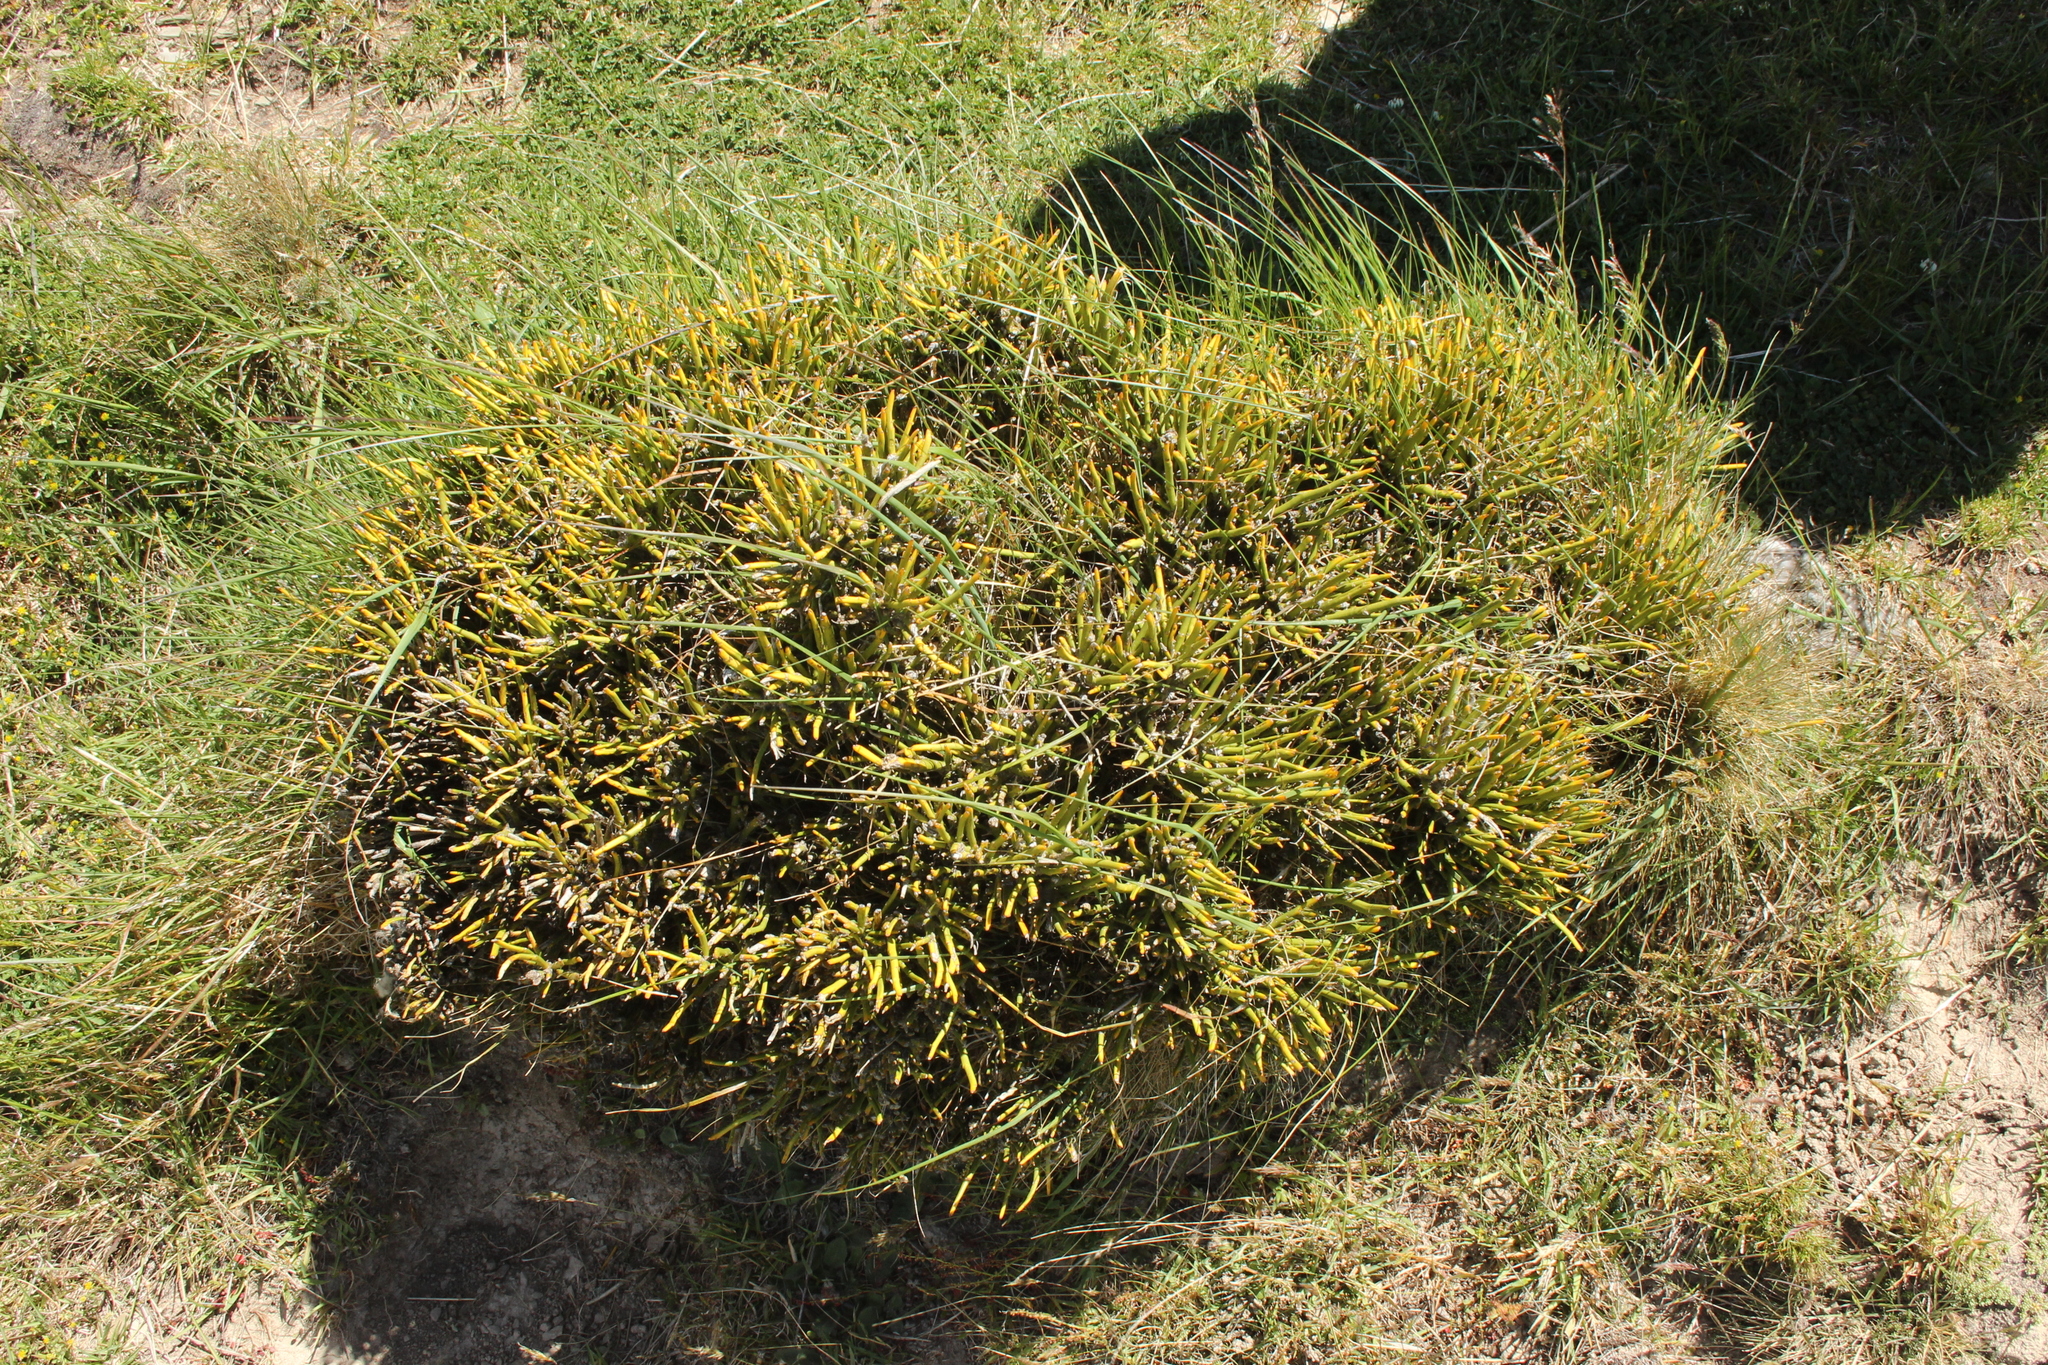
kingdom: Plantae
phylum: Tracheophyta
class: Magnoliopsida
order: Fabales
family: Fabaceae
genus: Carmichaelia
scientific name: Carmichaelia petriei
